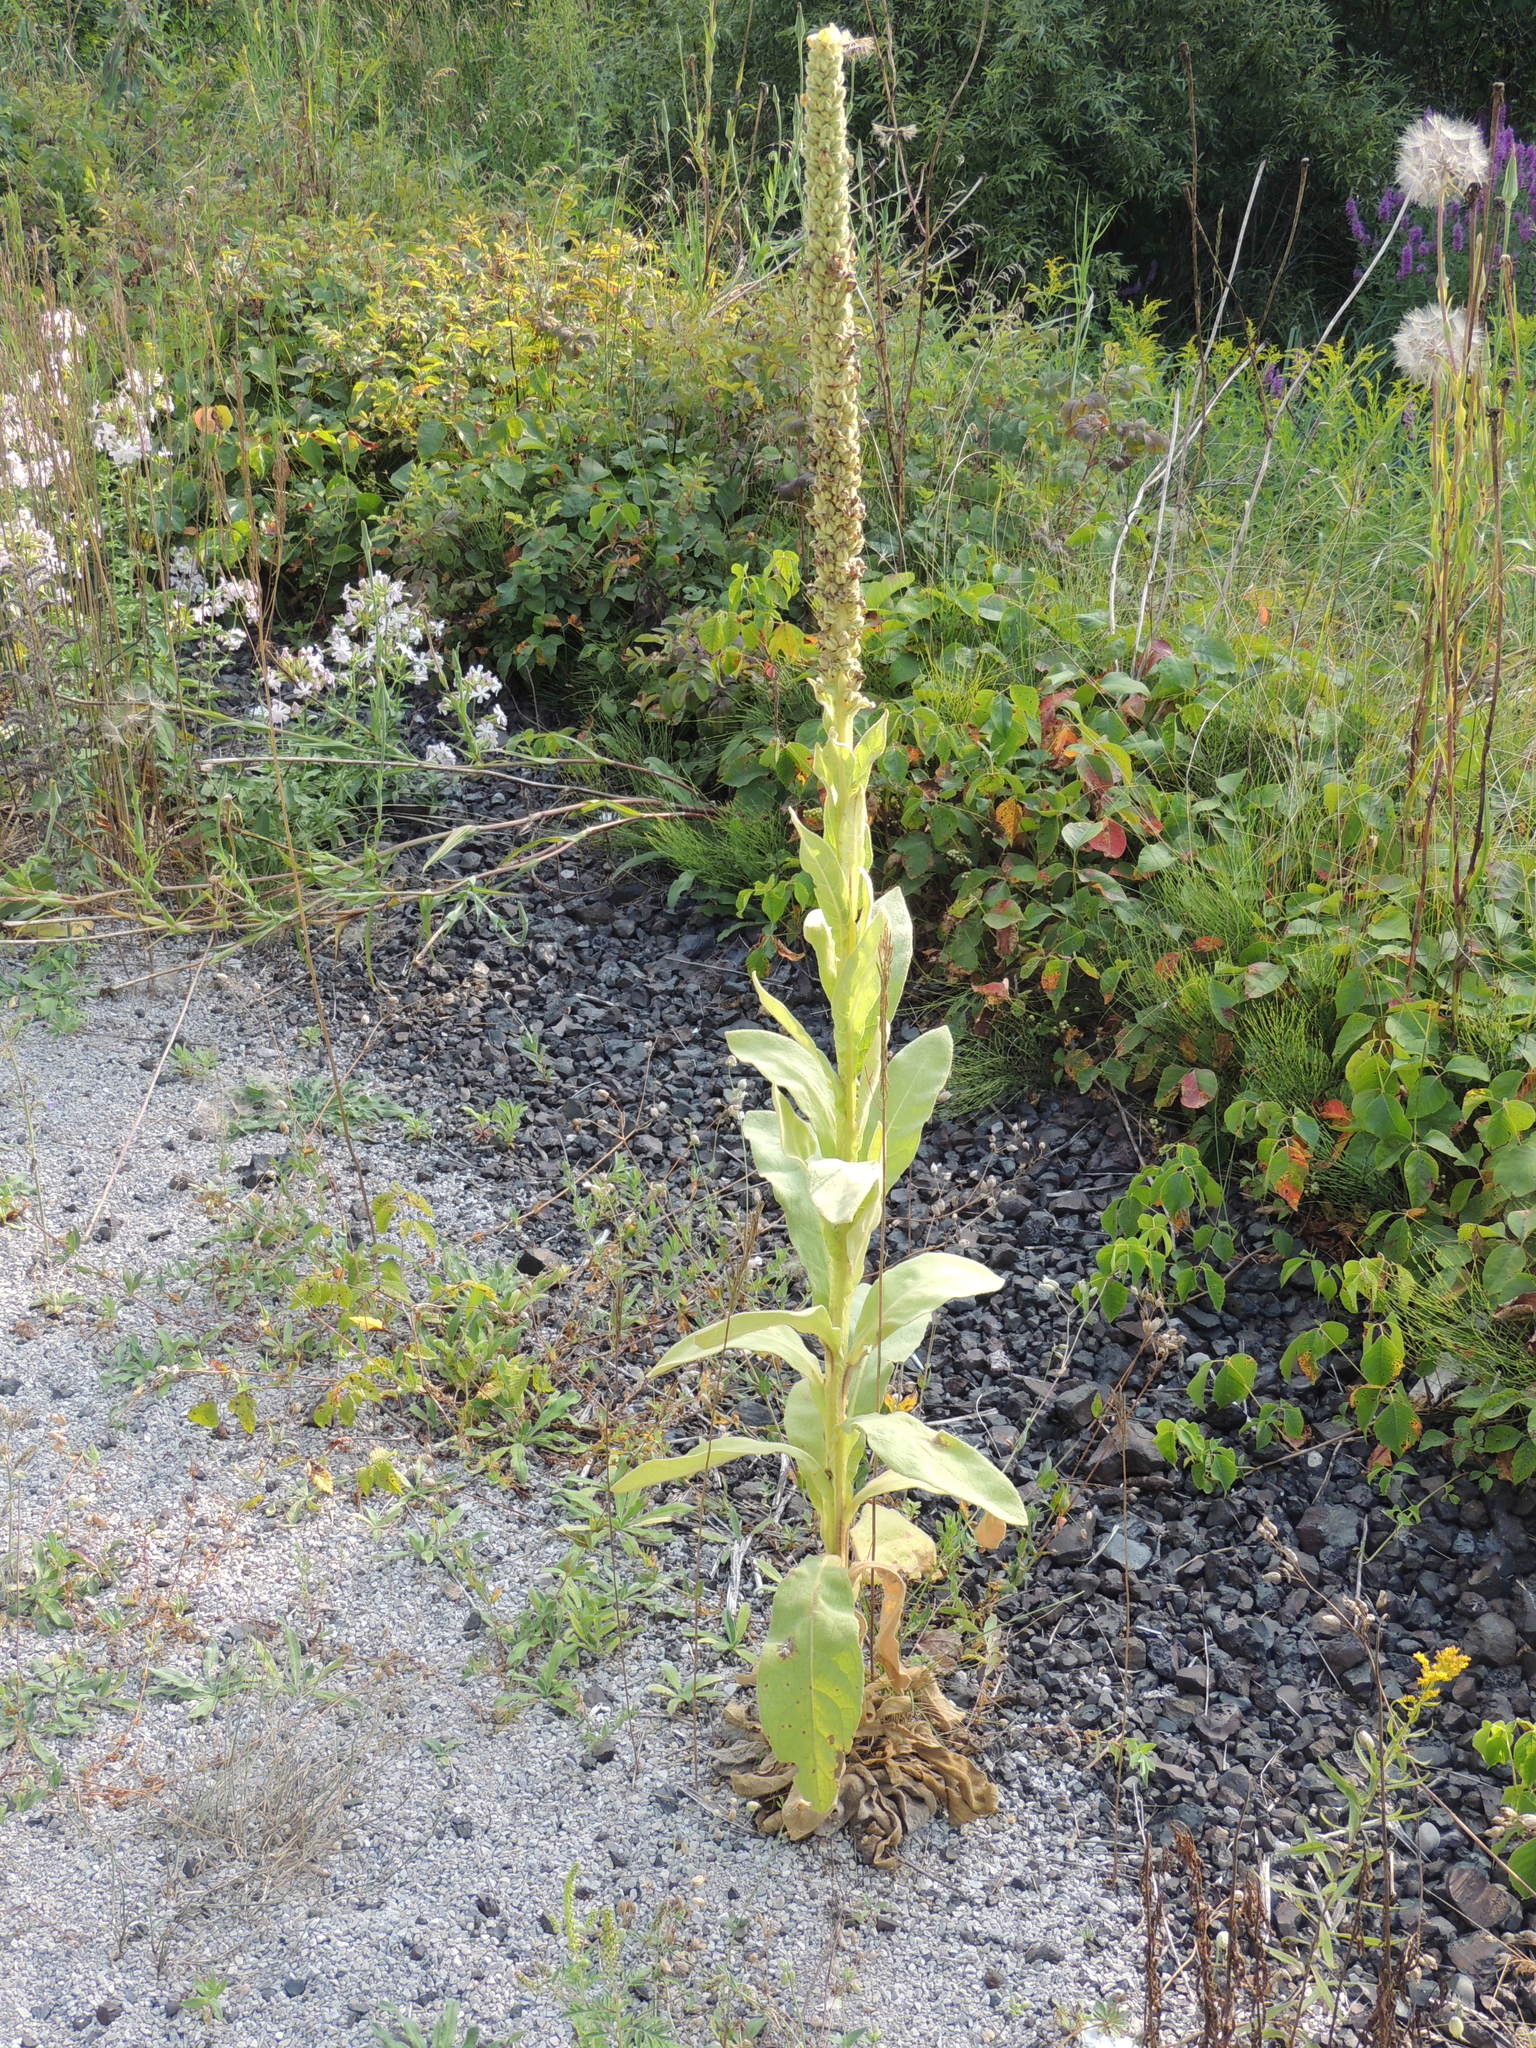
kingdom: Plantae
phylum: Tracheophyta
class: Magnoliopsida
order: Lamiales
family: Scrophulariaceae
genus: Verbascum
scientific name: Verbascum thapsus
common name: Common mullein
